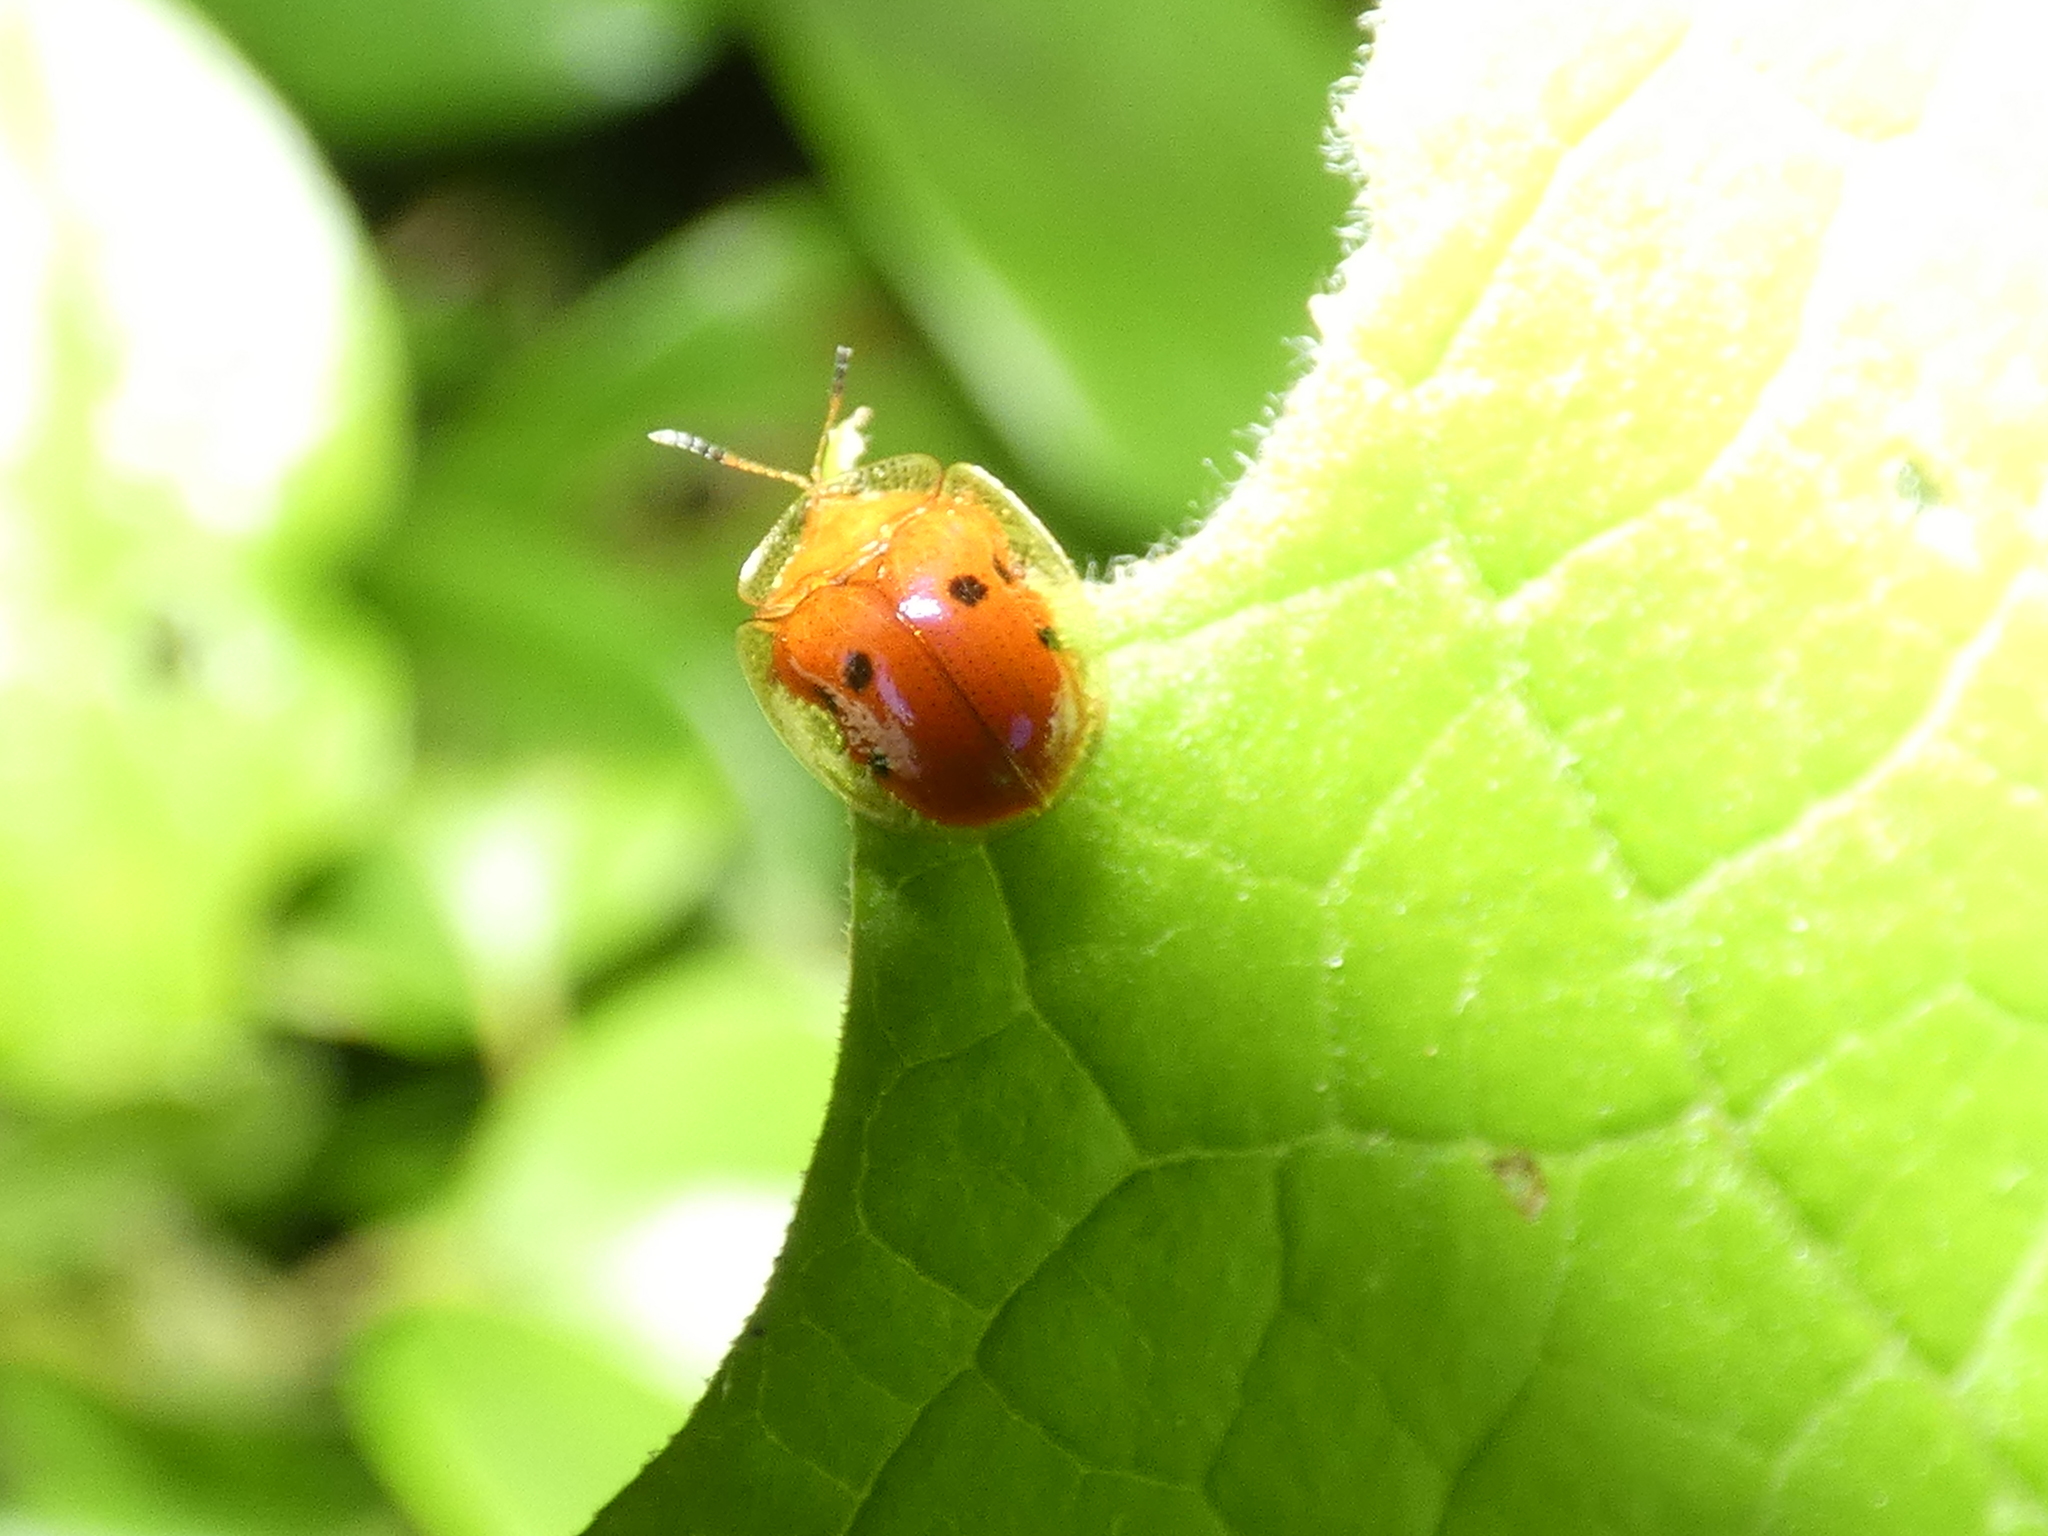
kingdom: Animalia
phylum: Arthropoda
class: Insecta
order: Coleoptera
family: Chrysomelidae
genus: Charidotella
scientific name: Charidotella sexpunctata
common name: Golden tortoise beetle
